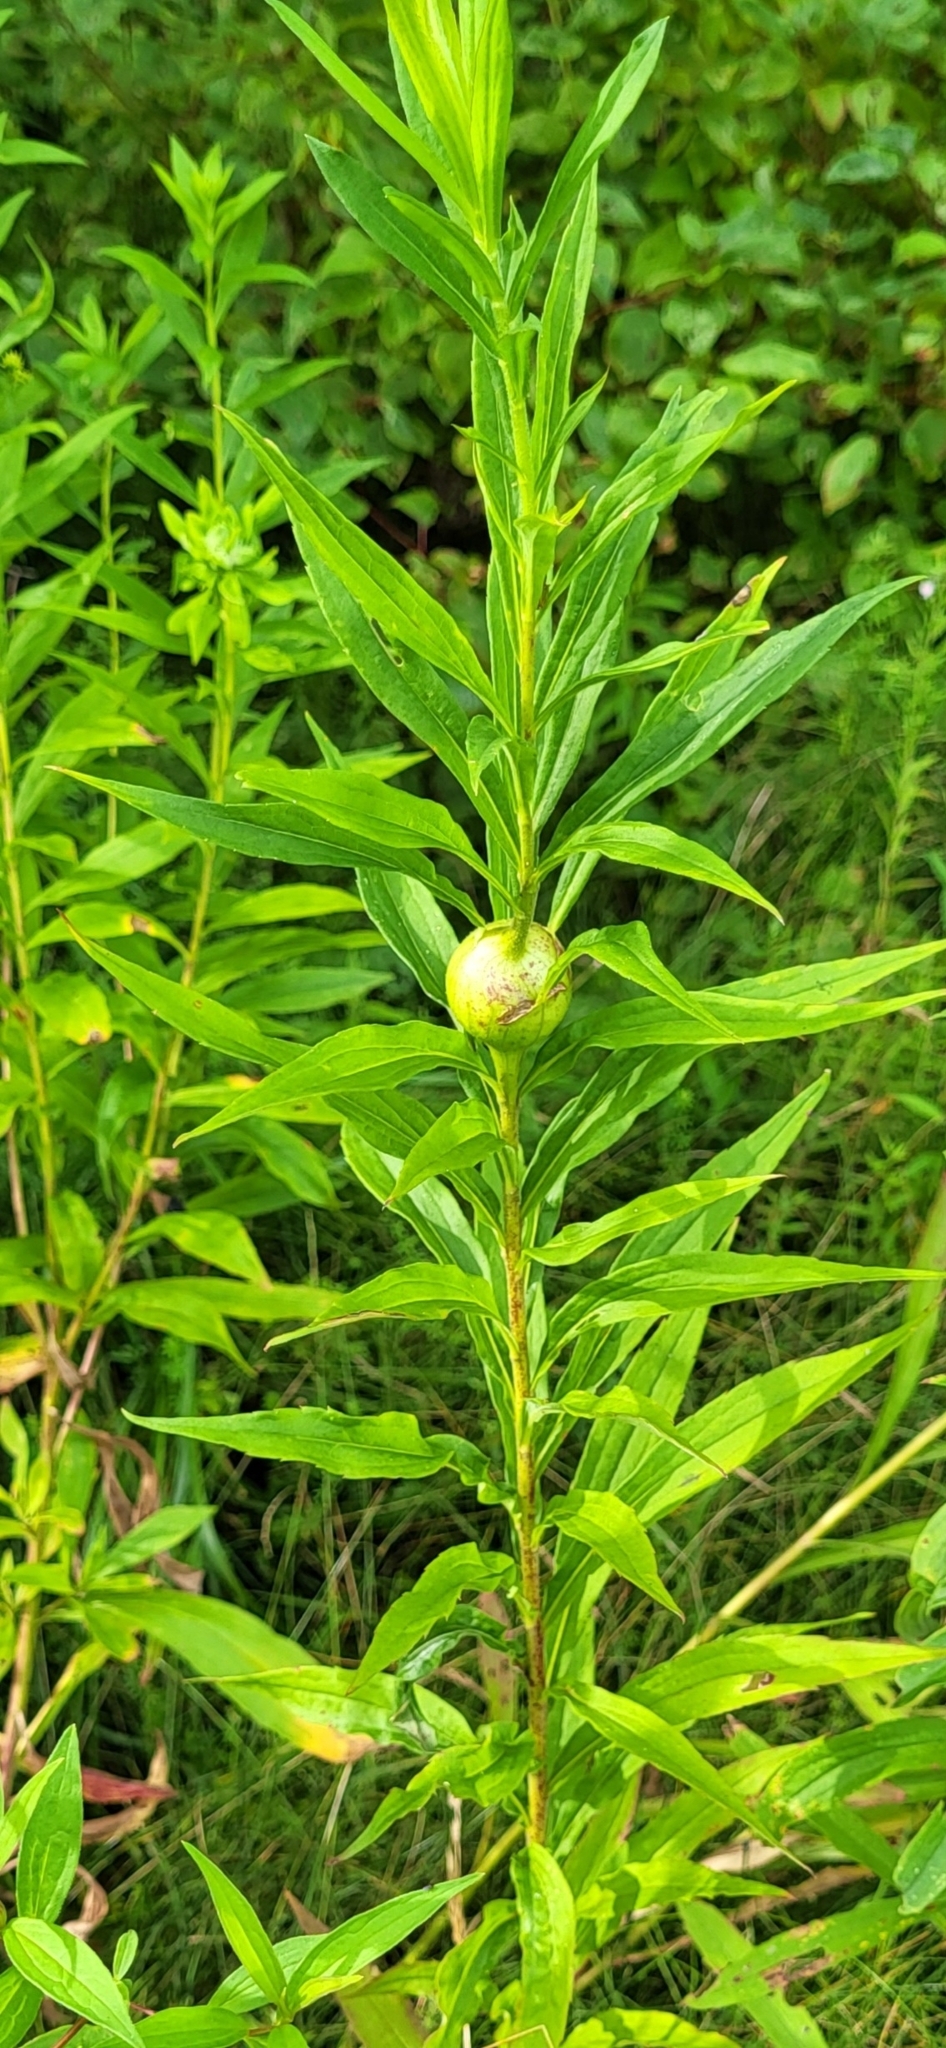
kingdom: Animalia
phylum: Arthropoda
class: Insecta
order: Diptera
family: Tephritidae
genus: Eurosta
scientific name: Eurosta solidaginis
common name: Goldenrod gall fly
